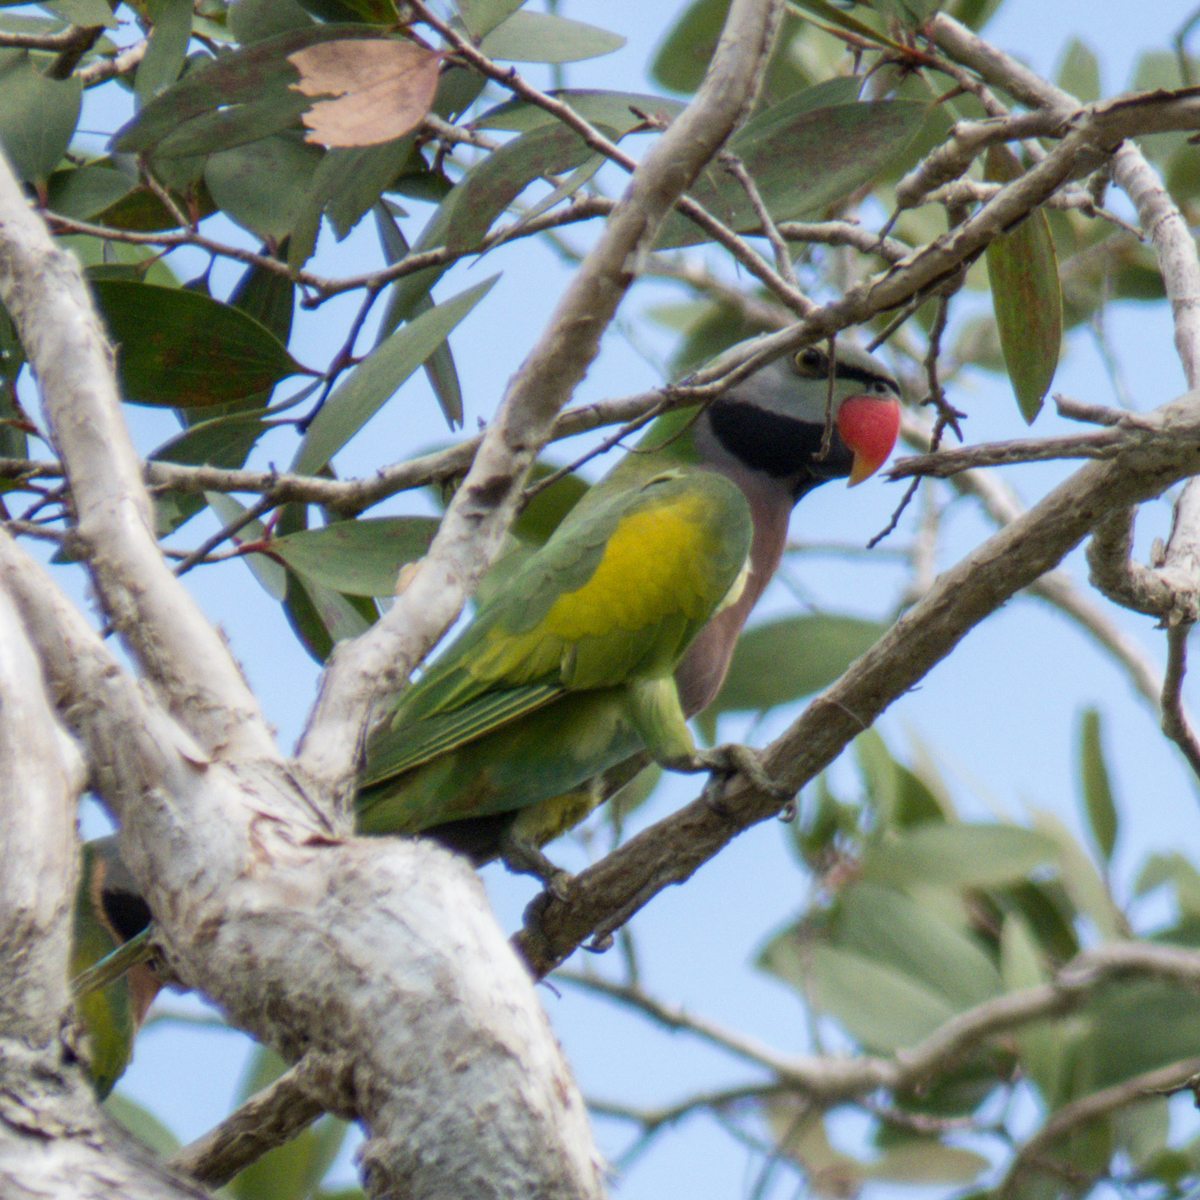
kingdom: Animalia
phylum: Chordata
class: Aves
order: Psittaciformes
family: Psittacidae
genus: Psittacula
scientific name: Psittacula alexandri
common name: Red-breasted parakeet
